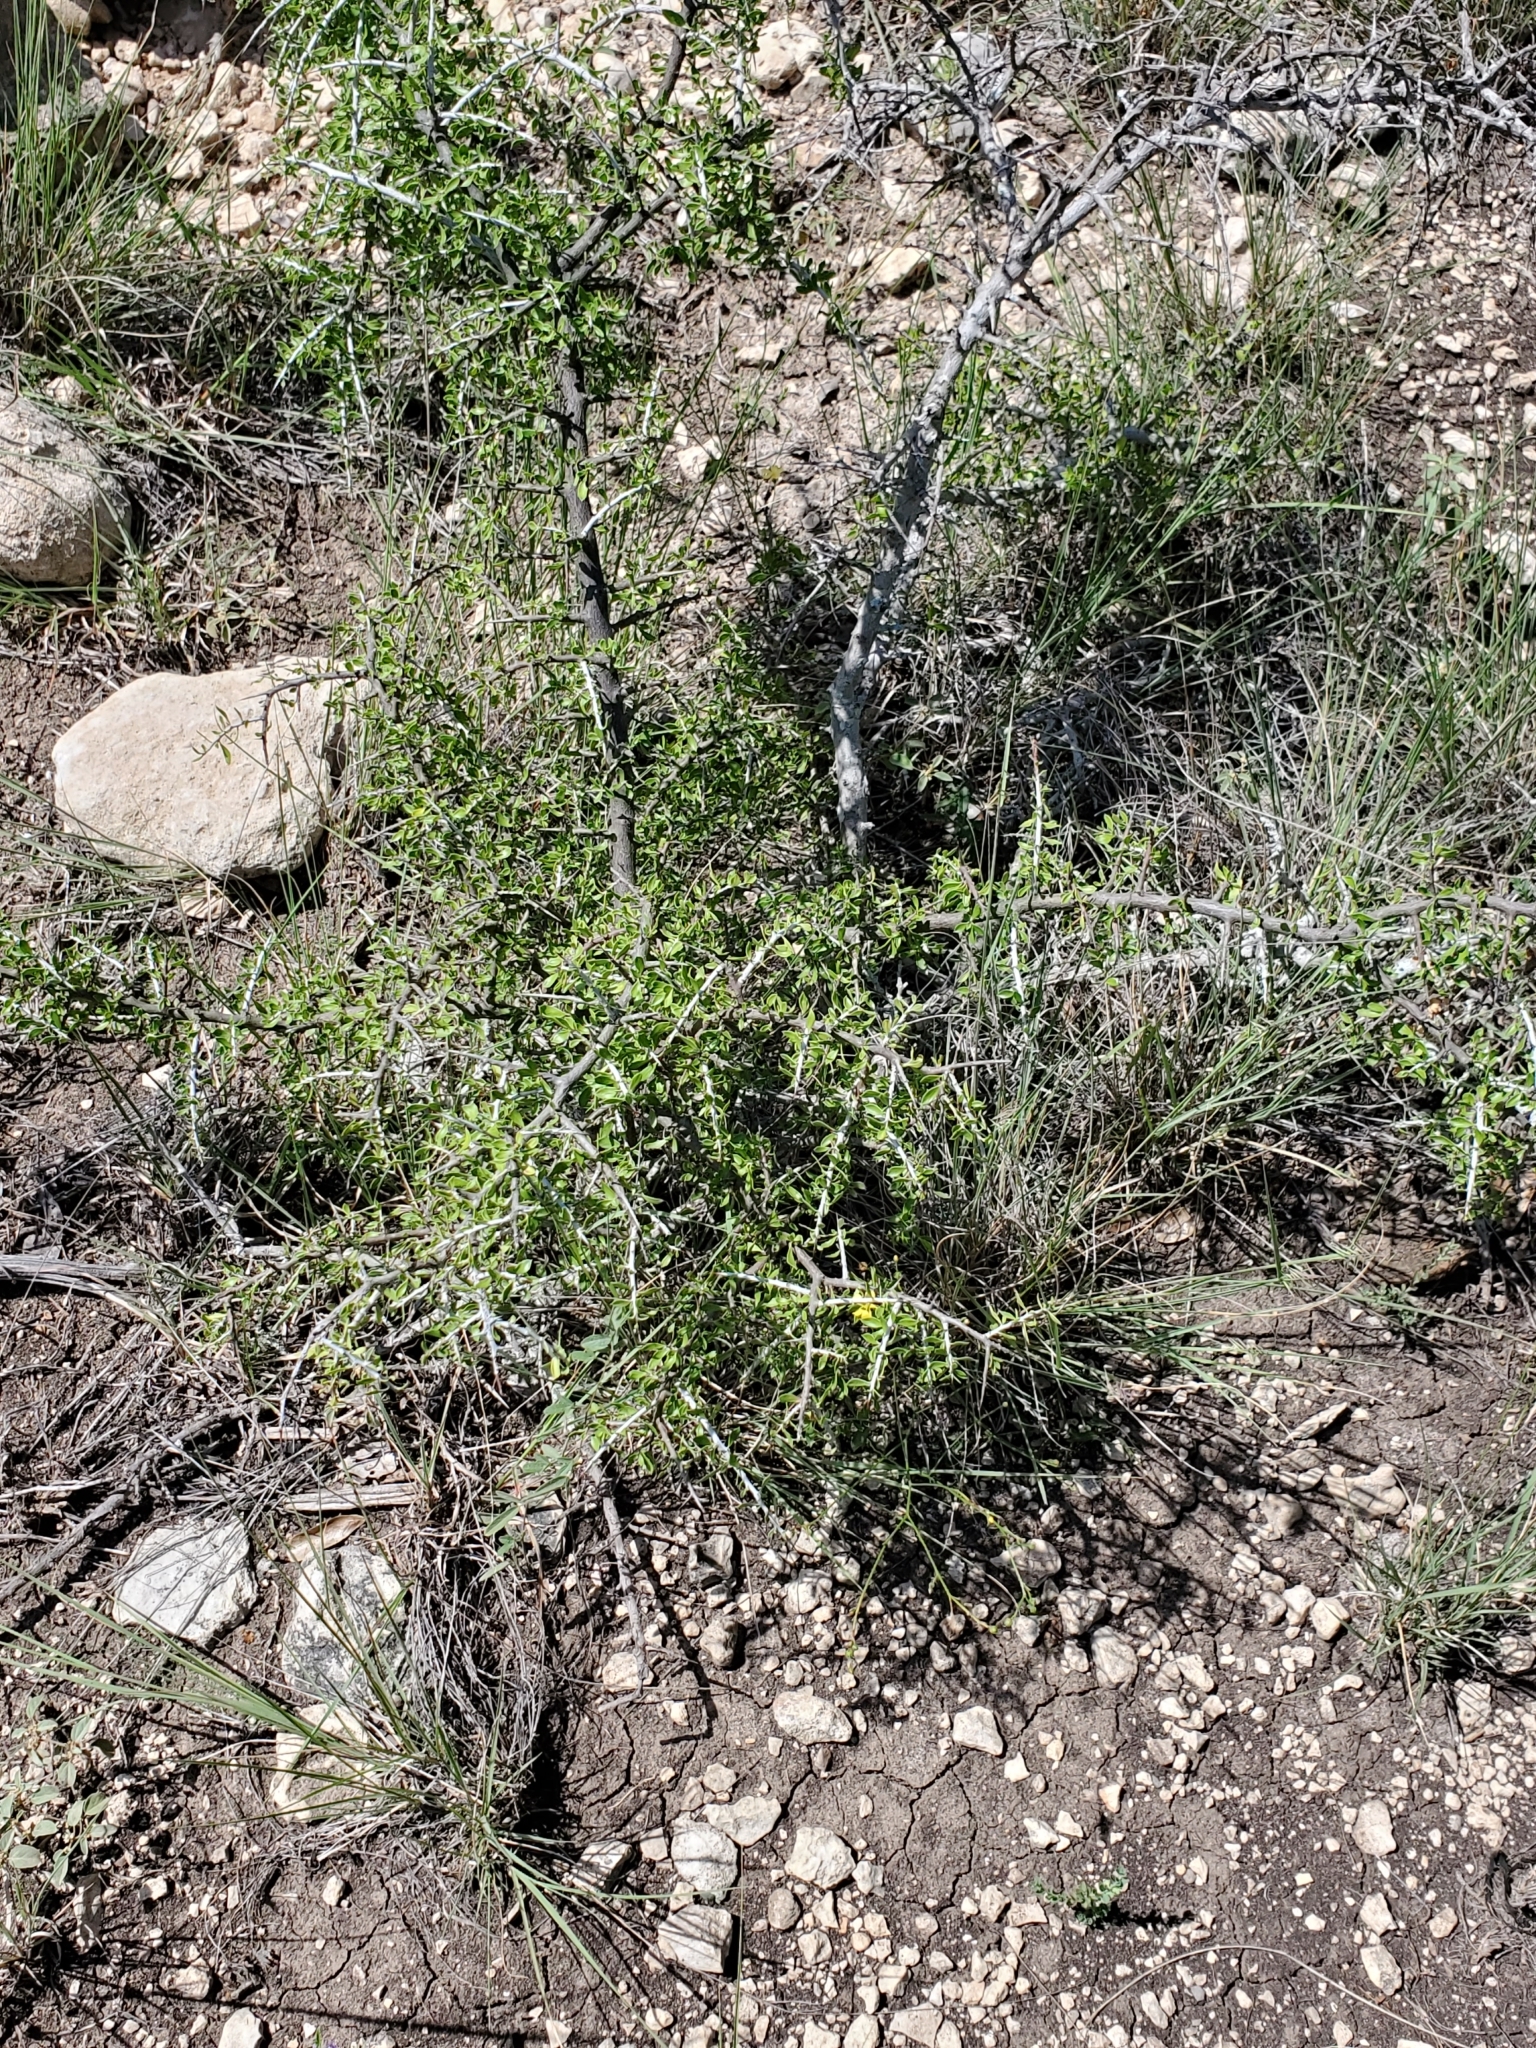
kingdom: Plantae
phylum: Tracheophyta
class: Magnoliopsida
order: Rosales
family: Rhamnaceae
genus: Condalia
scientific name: Condalia viridis
